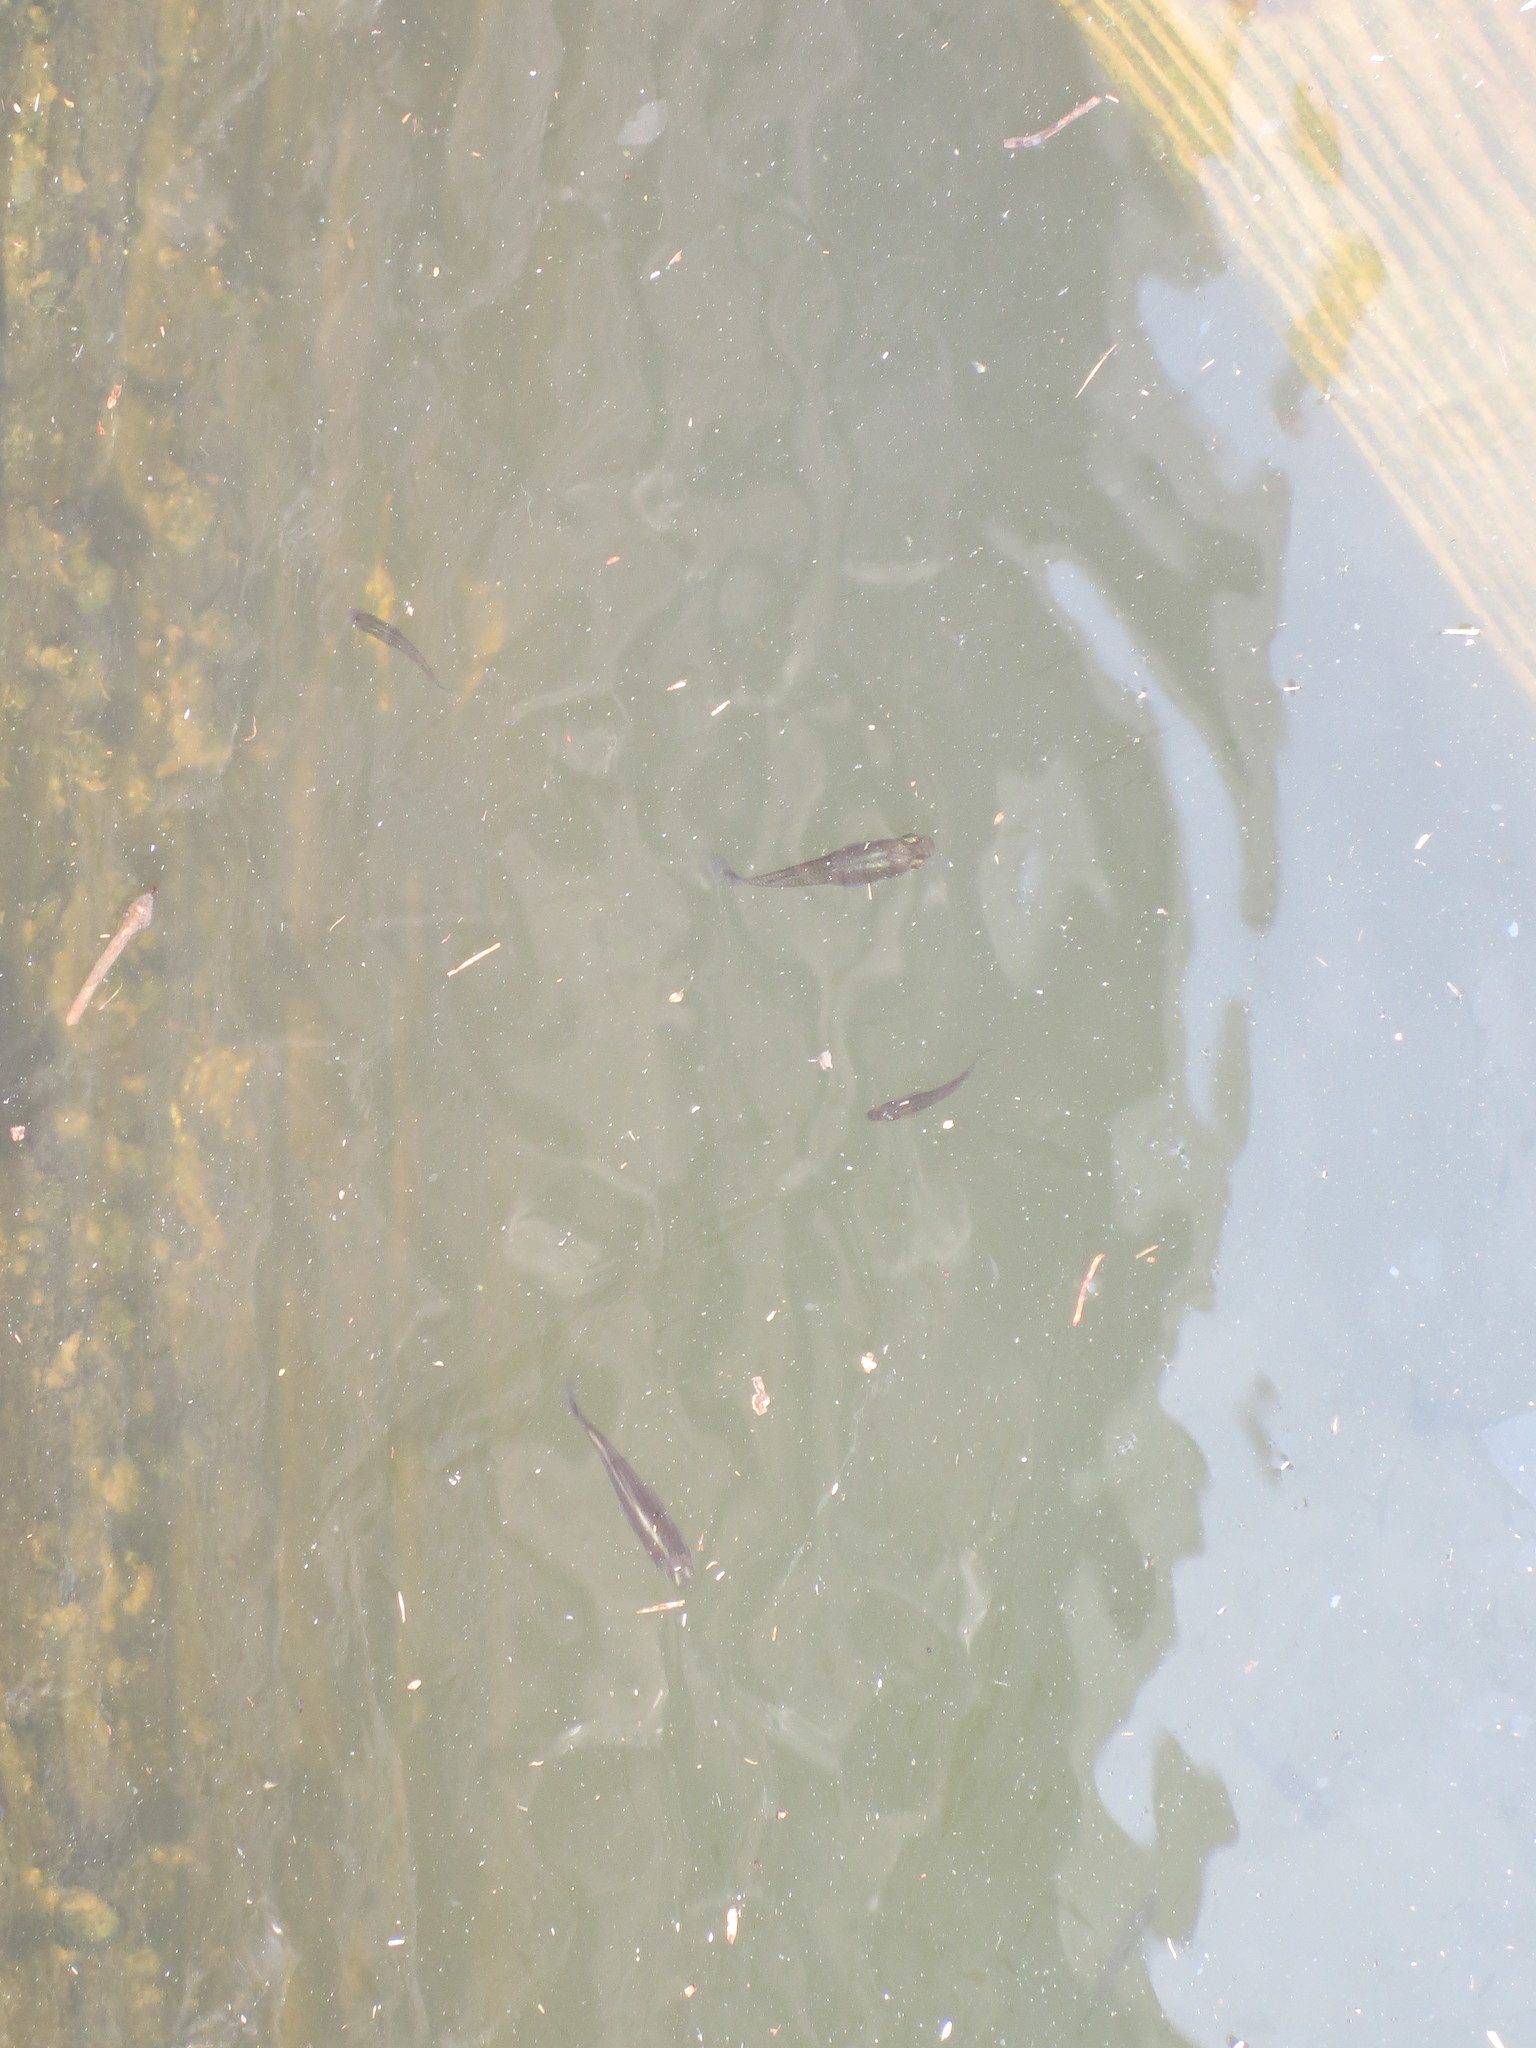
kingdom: Animalia
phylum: Chordata
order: Cyprinodontiformes
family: Poeciliidae
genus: Gambusia
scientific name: Gambusia holbrooki
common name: Eastern mosquitofish
